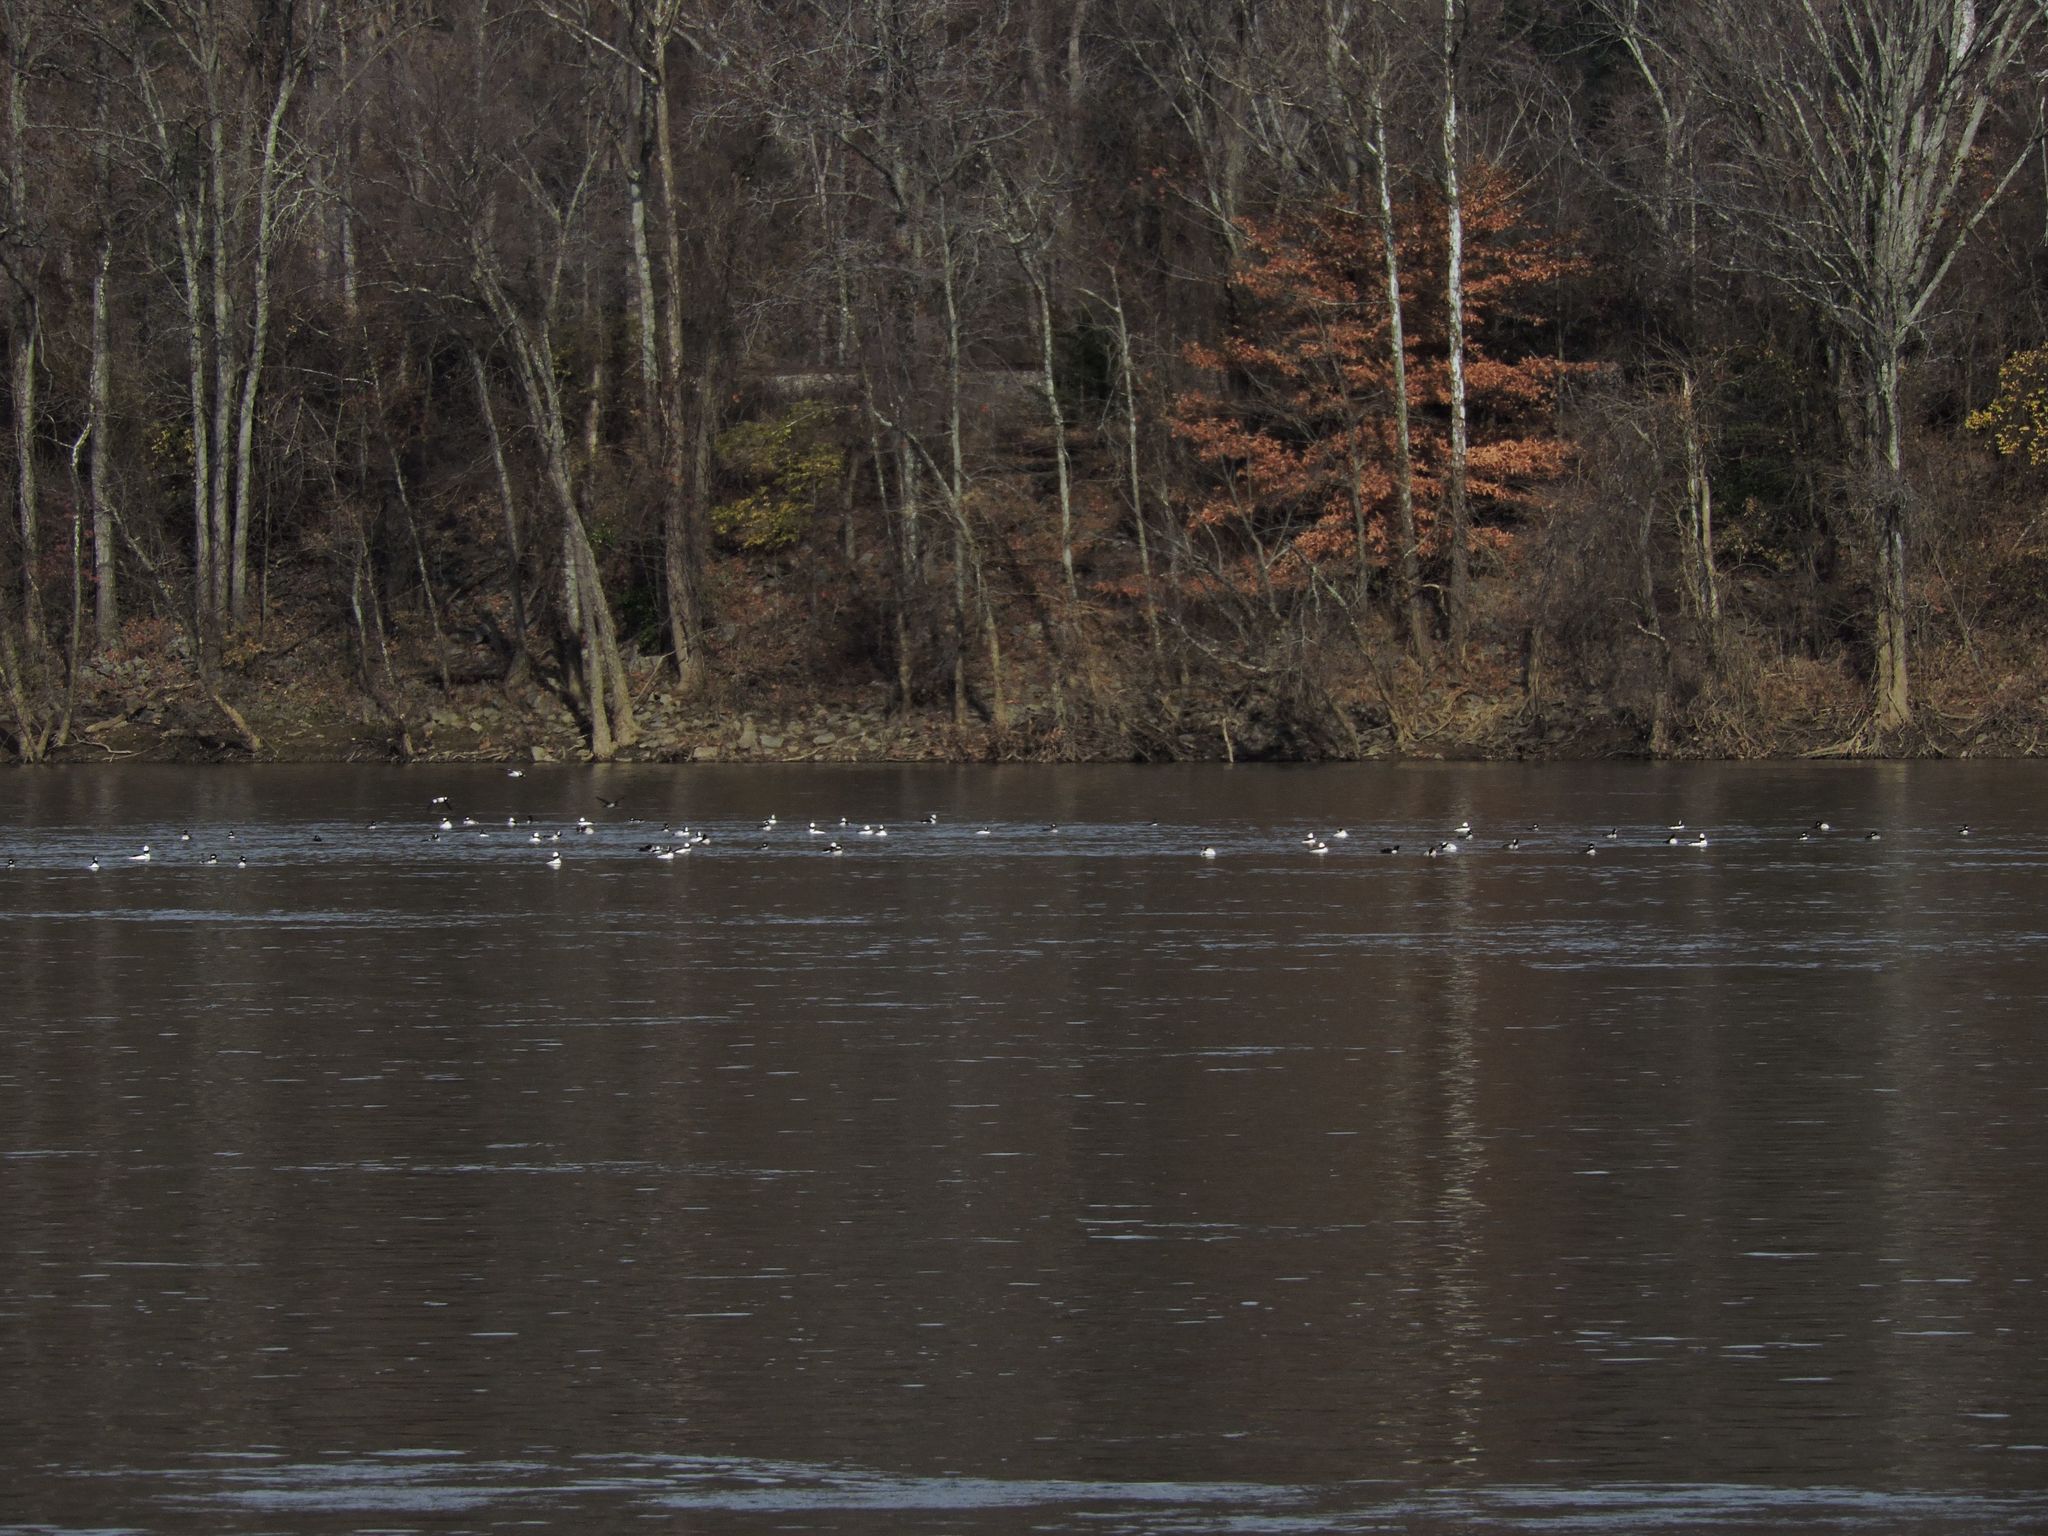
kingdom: Animalia
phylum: Chordata
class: Aves
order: Anseriformes
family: Anatidae
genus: Bucephala
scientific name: Bucephala albeola
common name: Bufflehead
